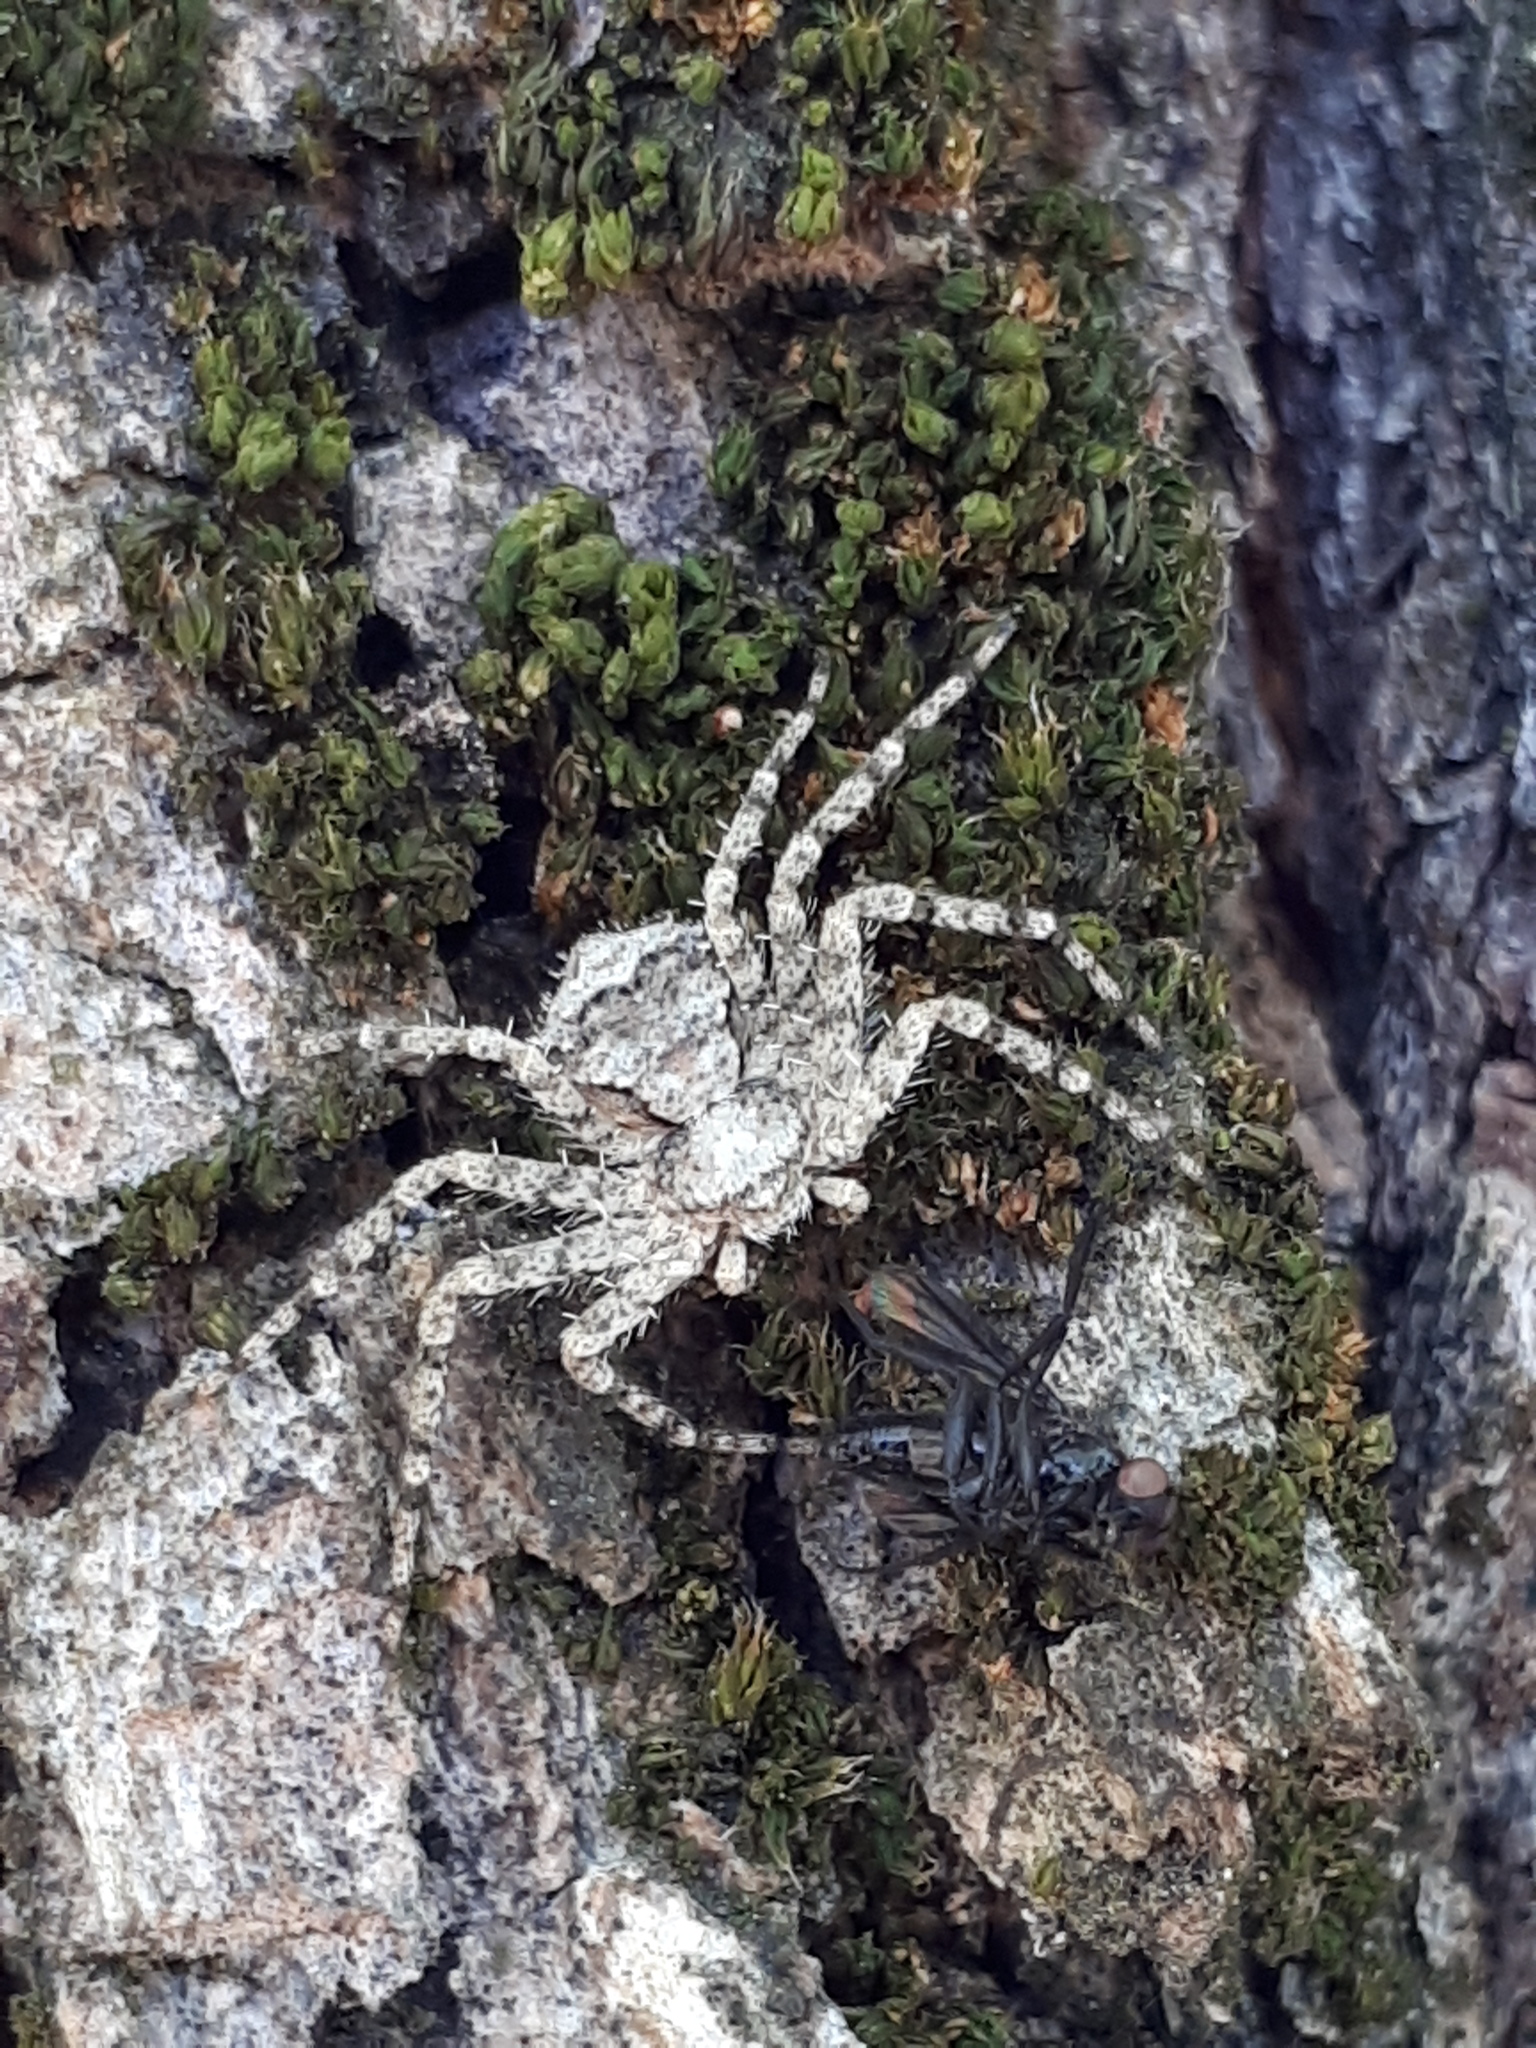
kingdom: Animalia
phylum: Arthropoda
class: Arachnida
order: Araneae
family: Philodromidae
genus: Philodromus
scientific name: Philodromus poecilus
